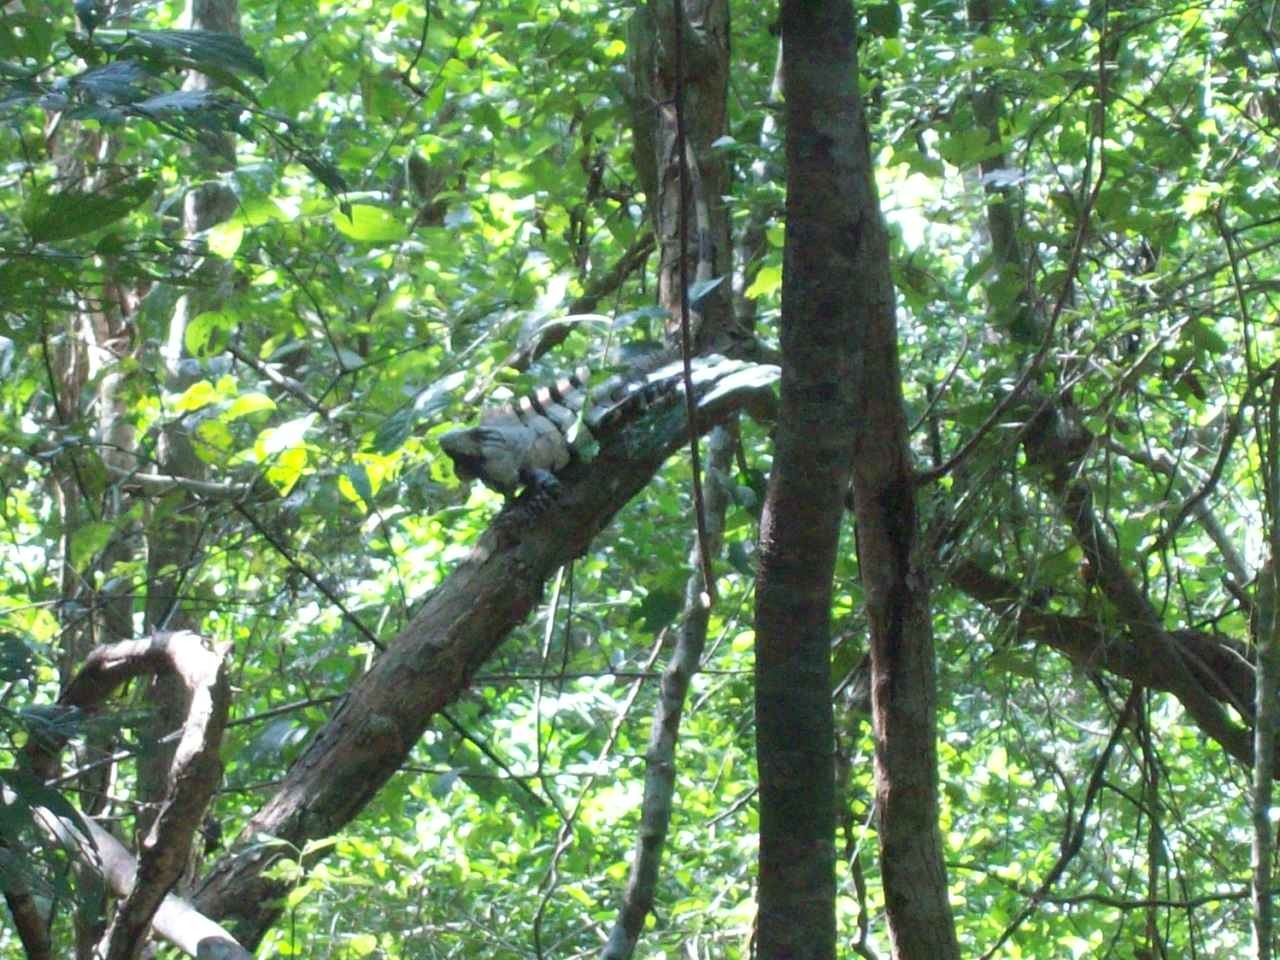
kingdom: Animalia
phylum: Chordata
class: Squamata
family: Iguanidae
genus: Ctenosaura
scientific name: Ctenosaura similis
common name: Black spiny-tailed iguana
